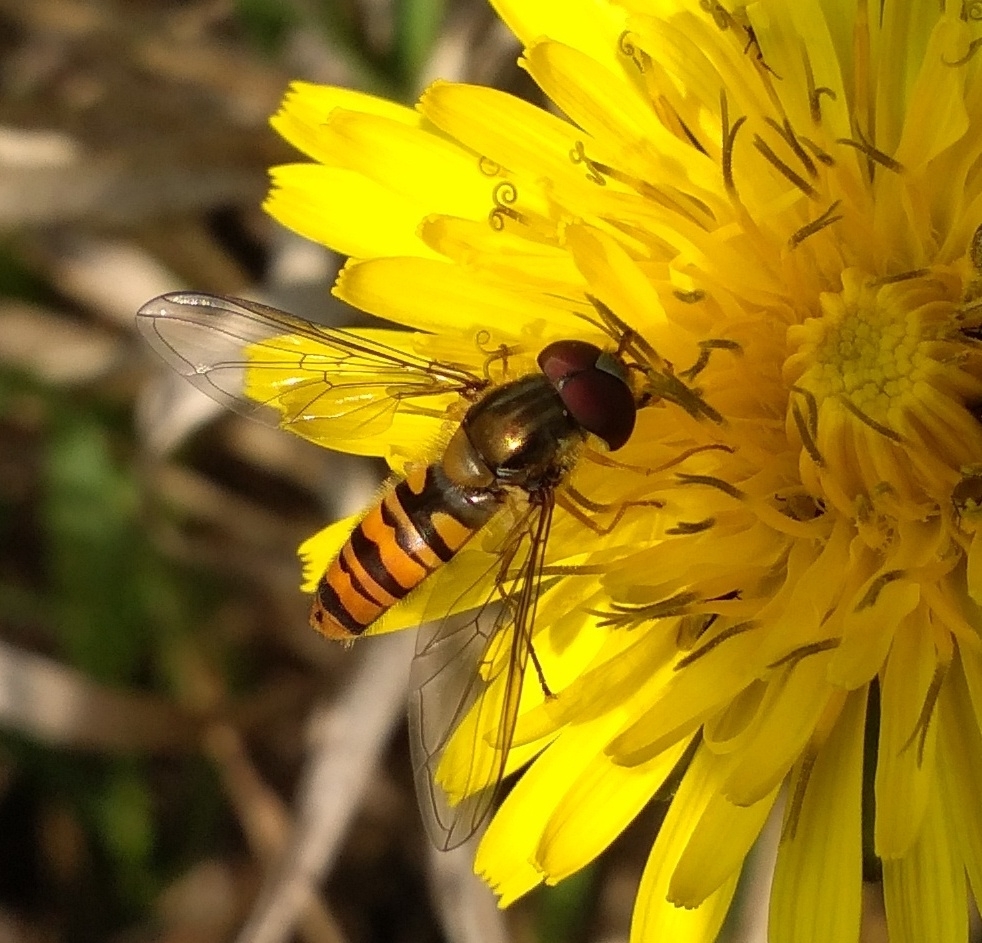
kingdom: Animalia
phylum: Arthropoda
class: Insecta
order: Diptera
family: Syrphidae
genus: Episyrphus
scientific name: Episyrphus balteatus
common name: Marmalade hoverfly
